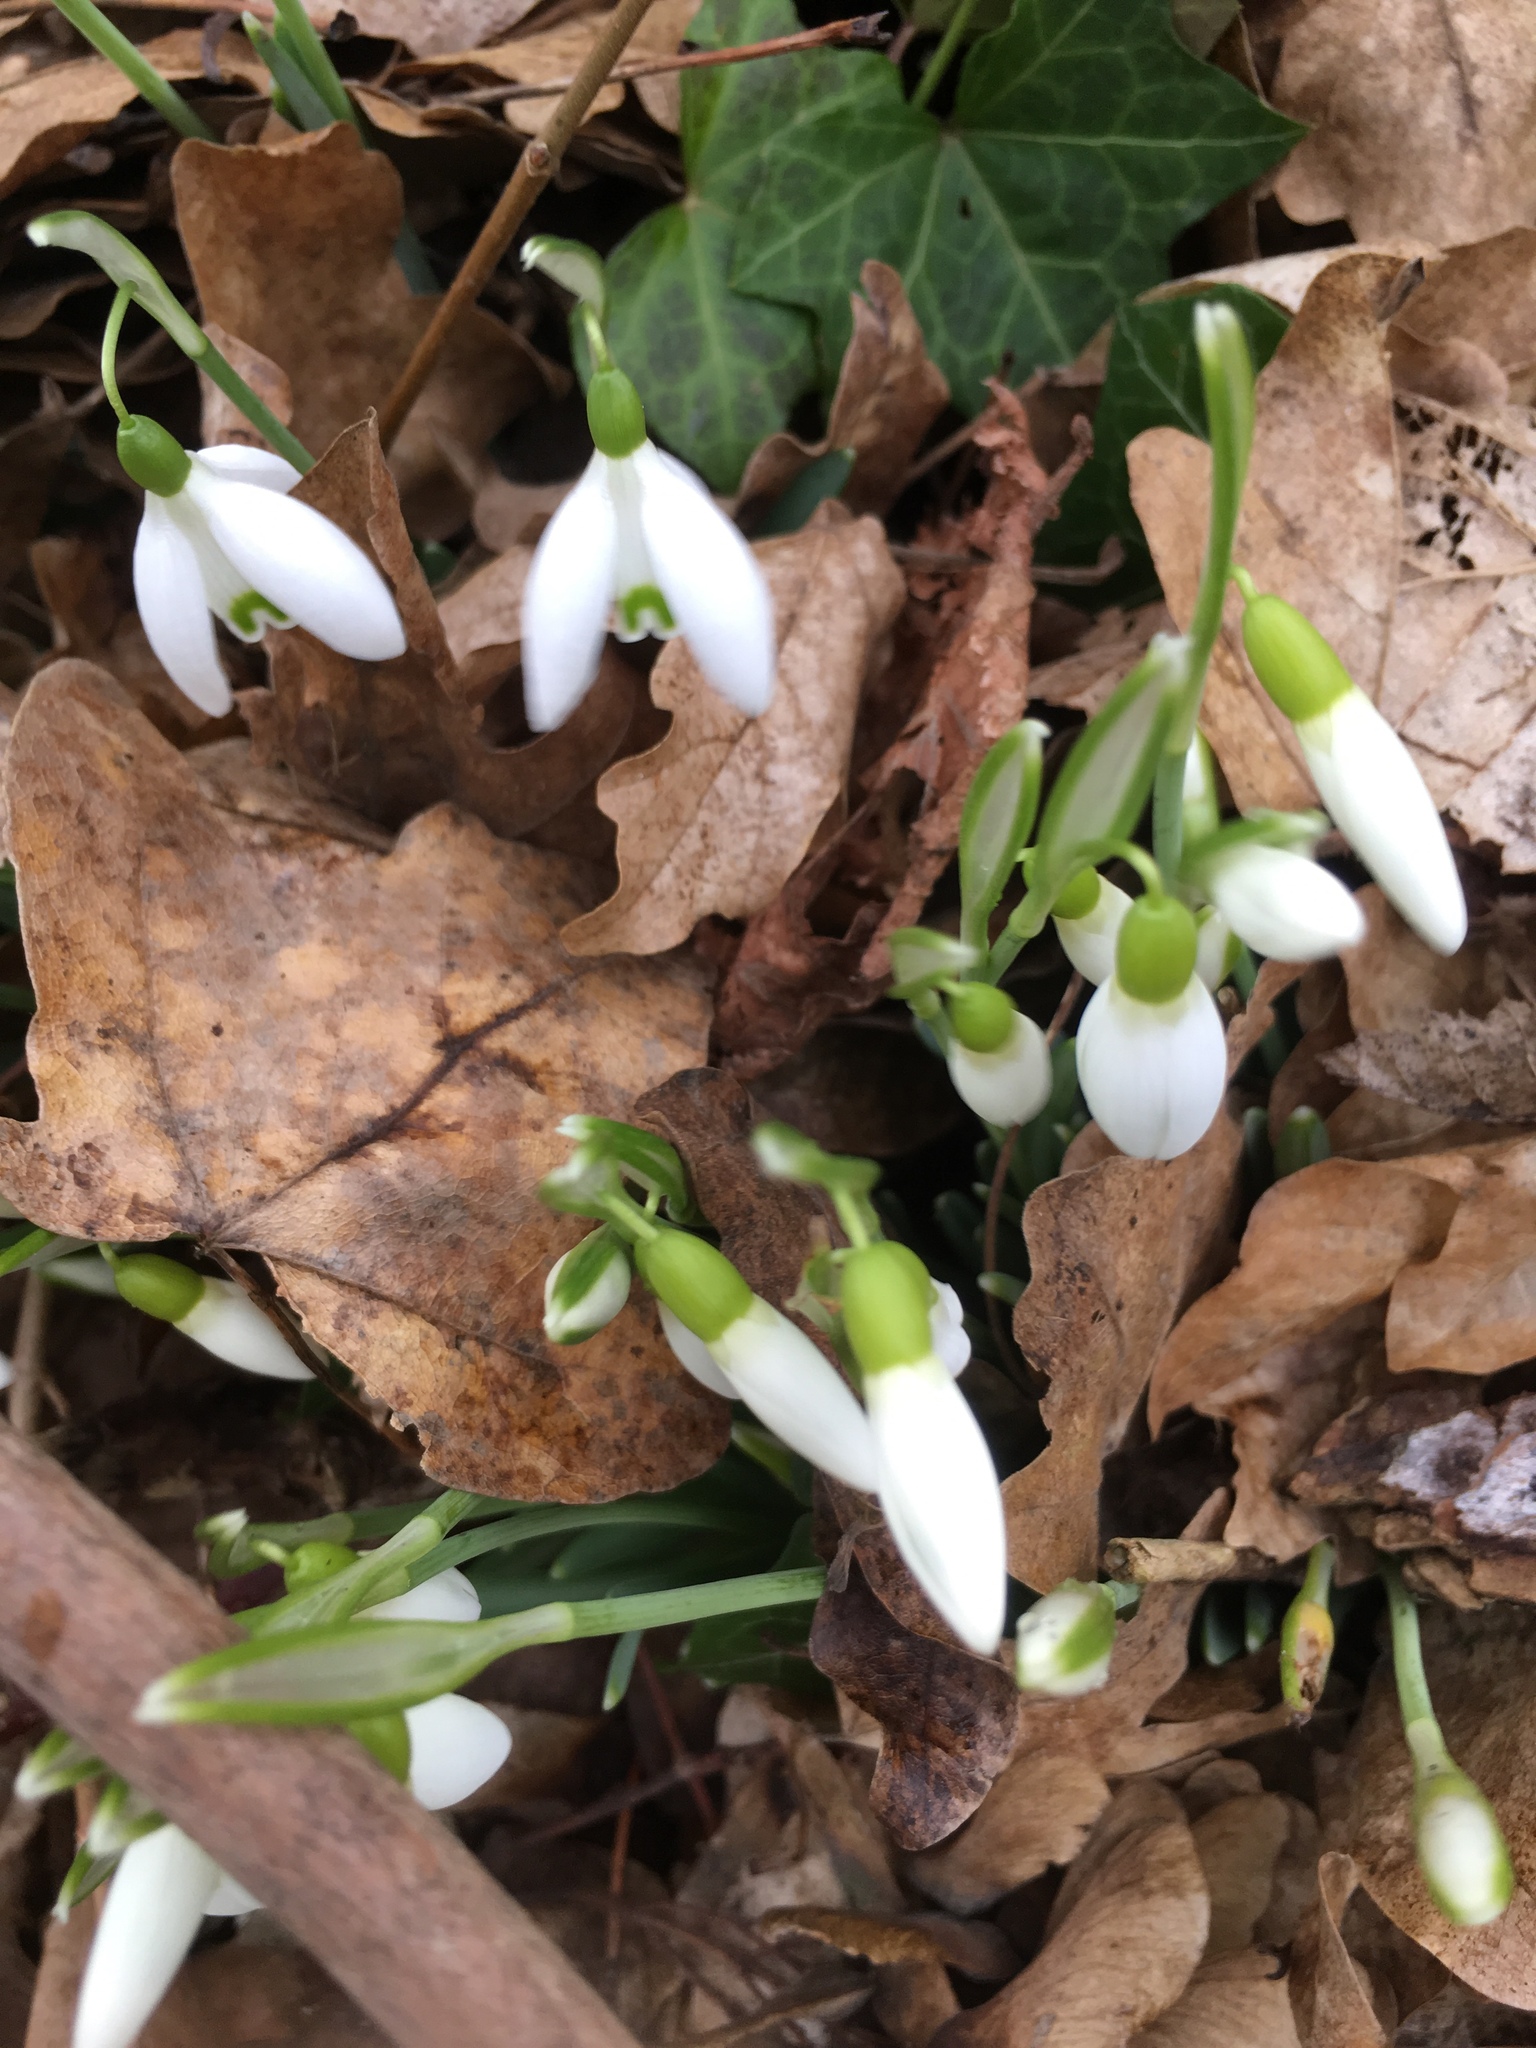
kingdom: Plantae
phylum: Tracheophyta
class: Liliopsida
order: Asparagales
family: Amaryllidaceae
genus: Galanthus
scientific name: Galanthus nivalis
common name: Snowdrop
